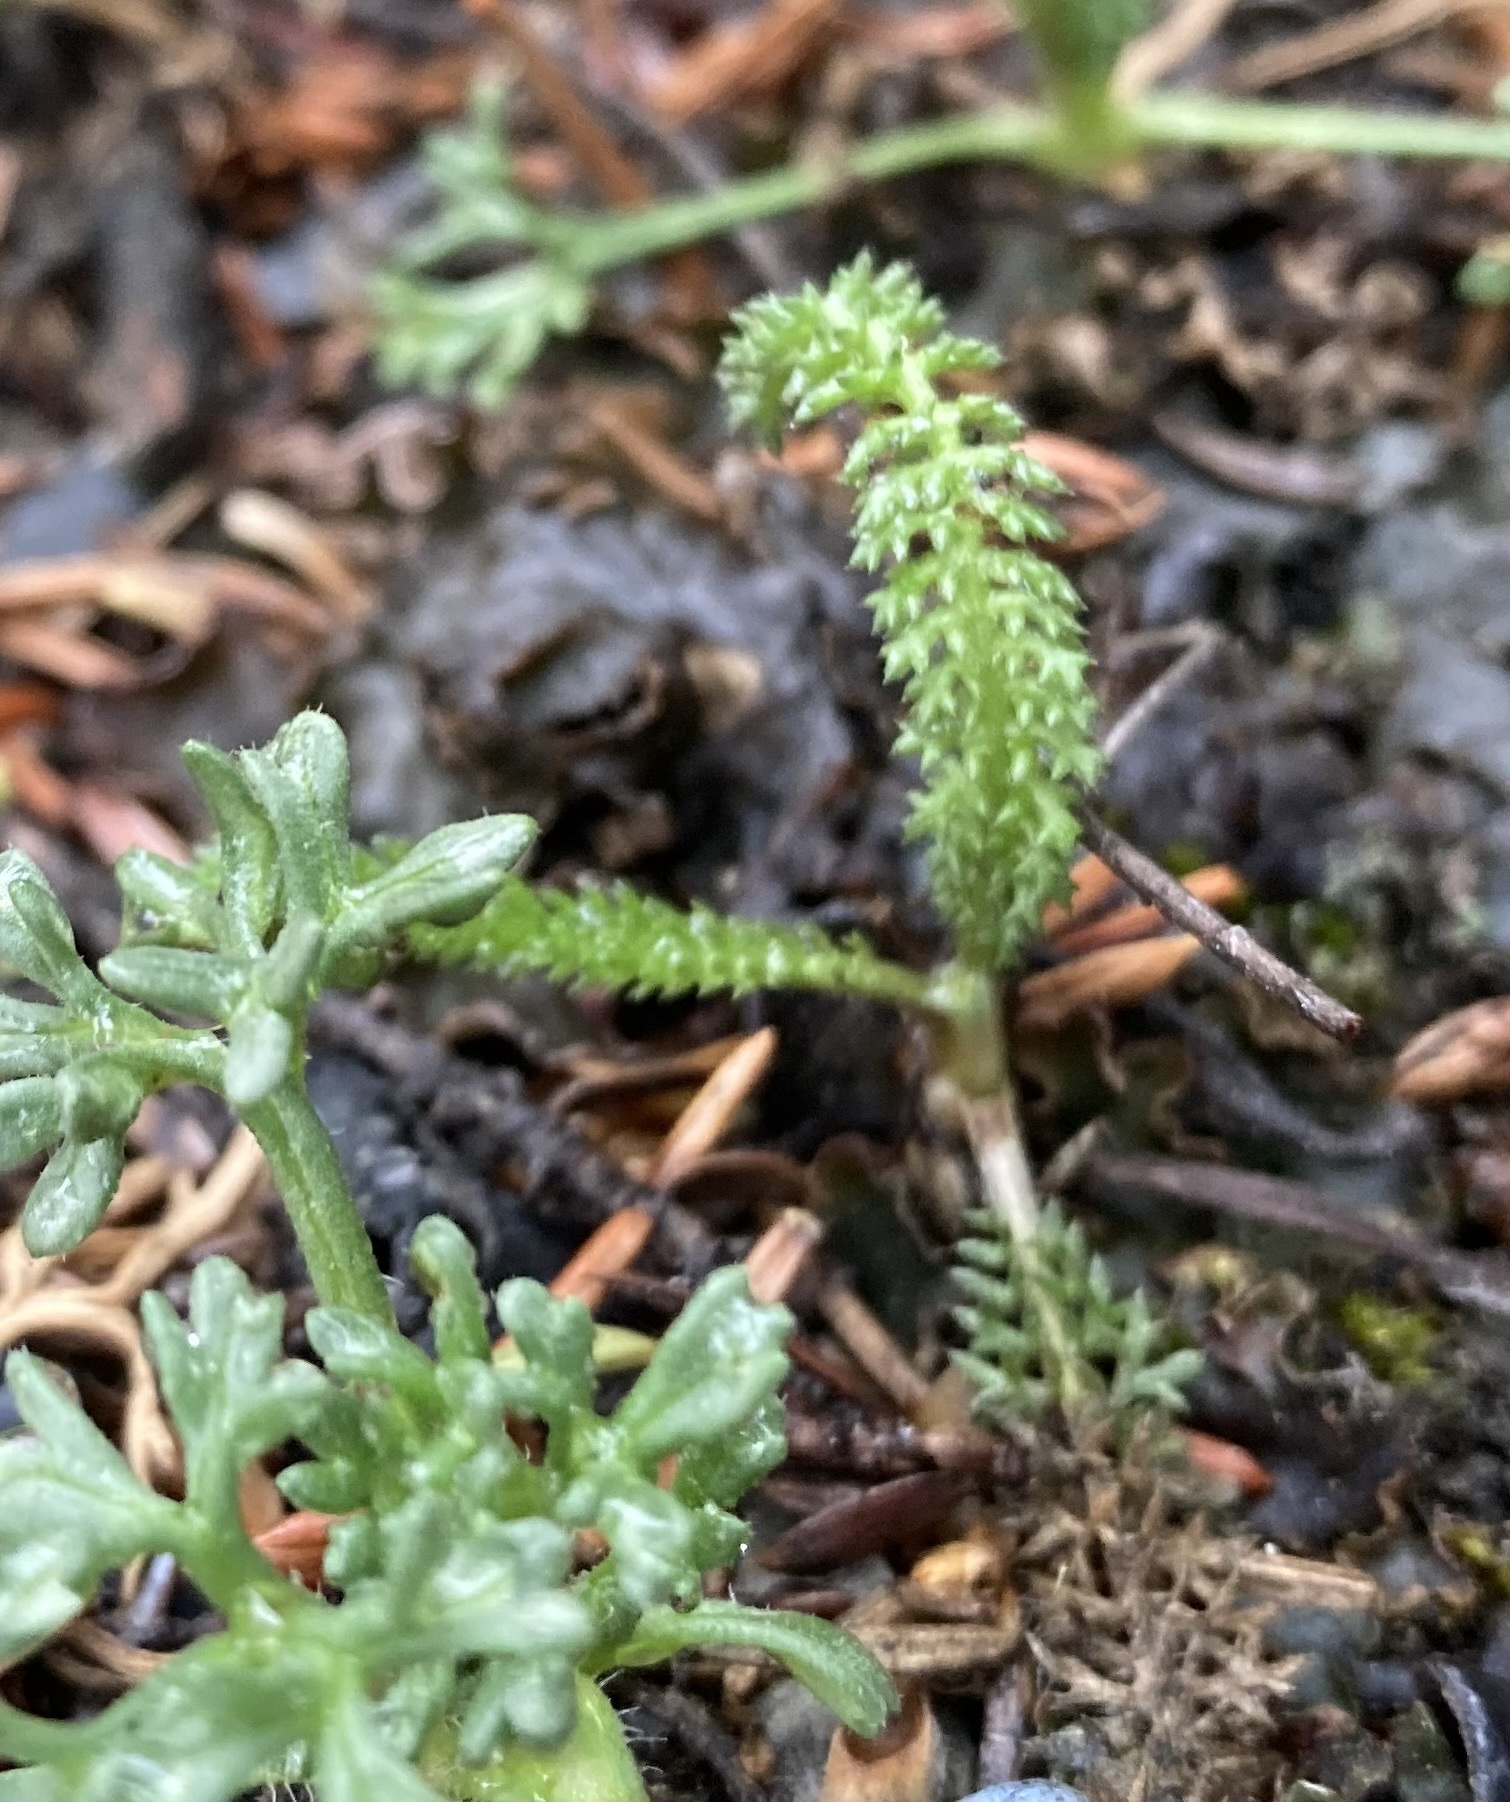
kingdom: Plantae
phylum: Tracheophyta
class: Magnoliopsida
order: Asterales
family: Asteraceae
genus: Achillea
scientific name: Achillea millefolium
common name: Yarrow
